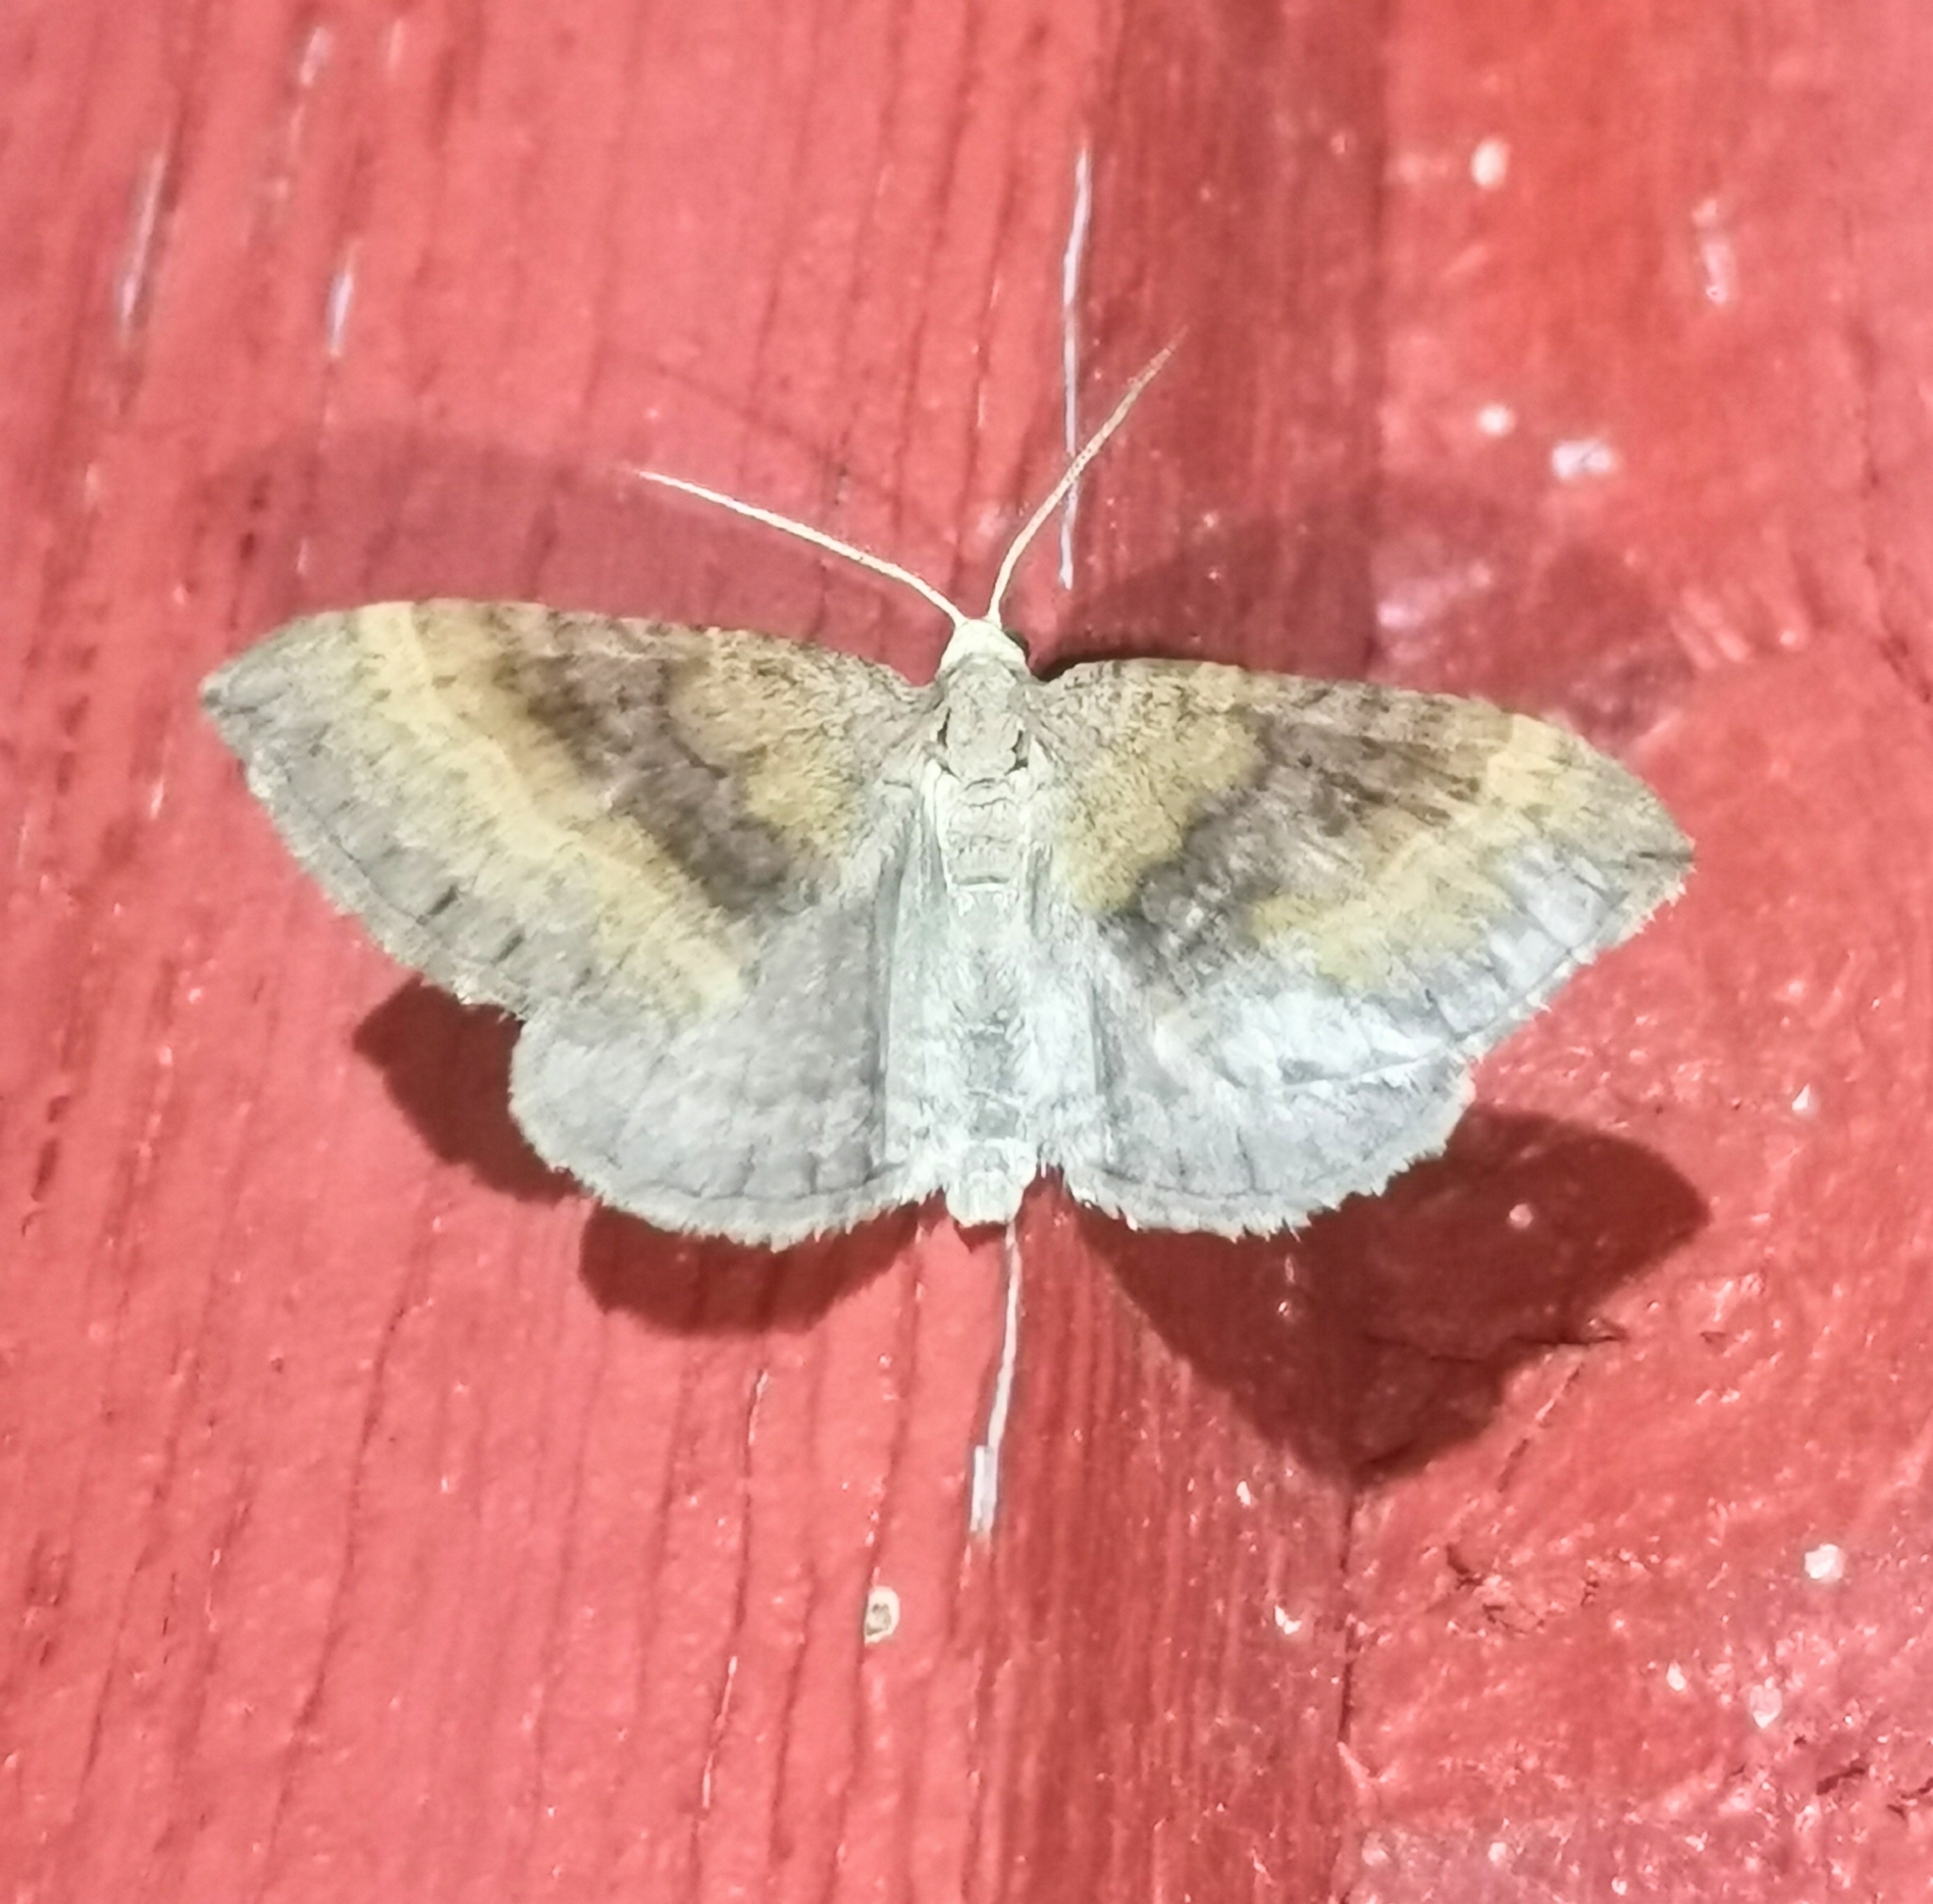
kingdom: Animalia
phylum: Arthropoda
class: Insecta
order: Lepidoptera
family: Geometridae
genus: Scotopteryx
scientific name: Scotopteryx chenopodiata
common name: Shaded broad-bar
